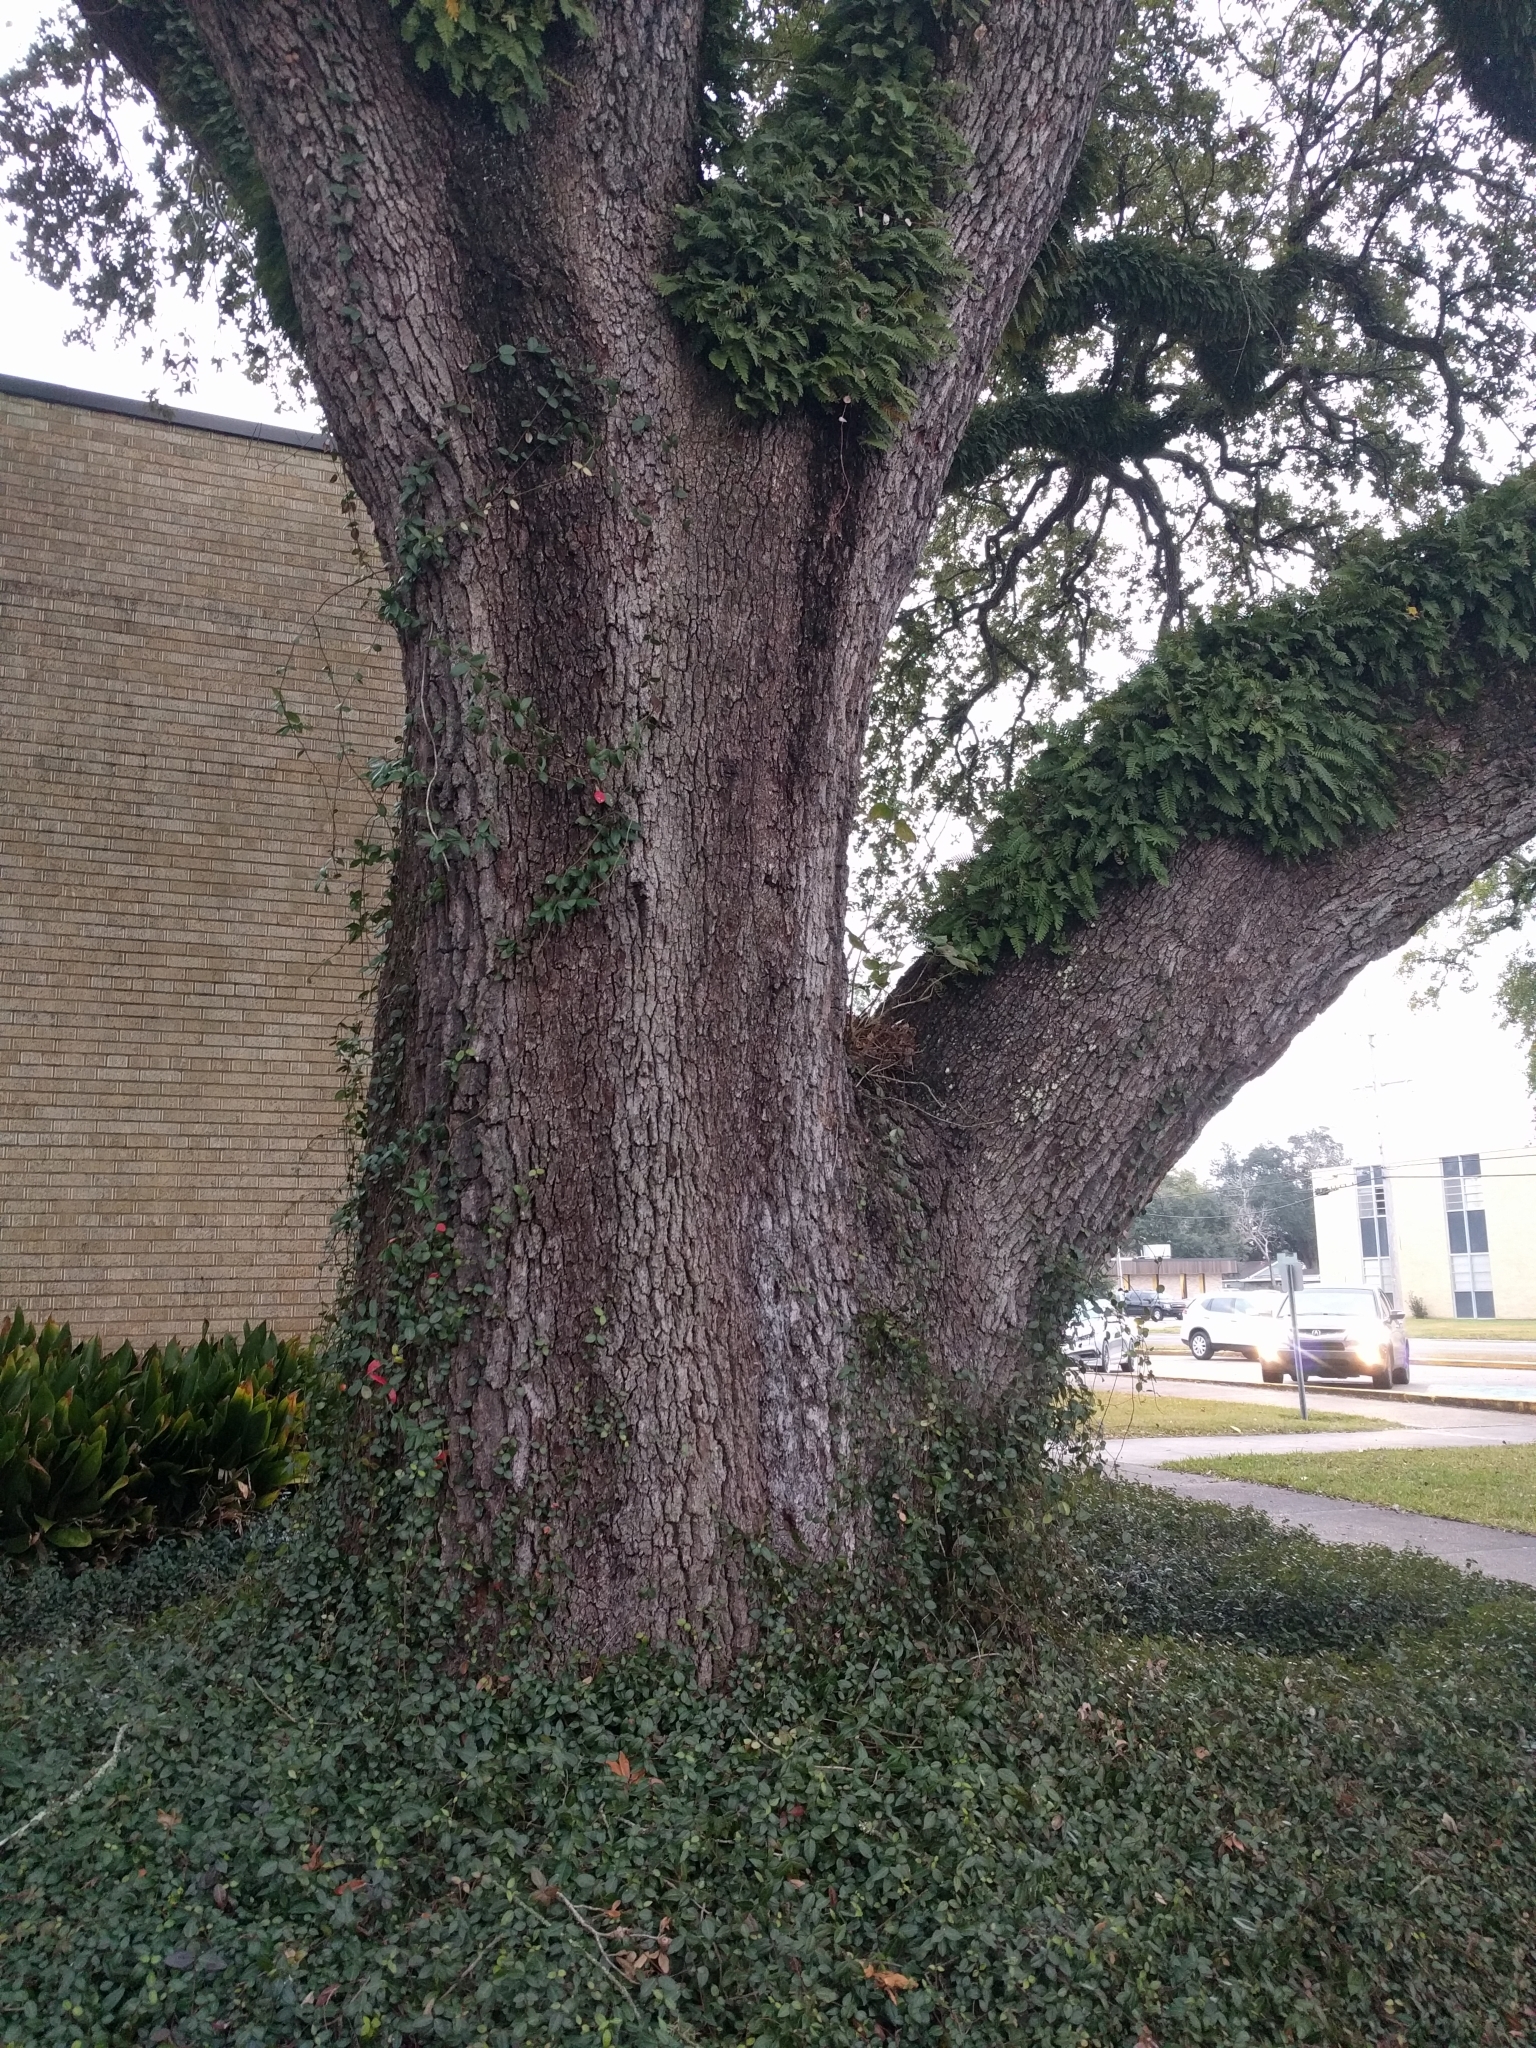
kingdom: Plantae
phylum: Tracheophyta
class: Magnoliopsida
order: Fagales
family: Fagaceae
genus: Quercus
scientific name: Quercus virginiana
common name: Southern live oak
